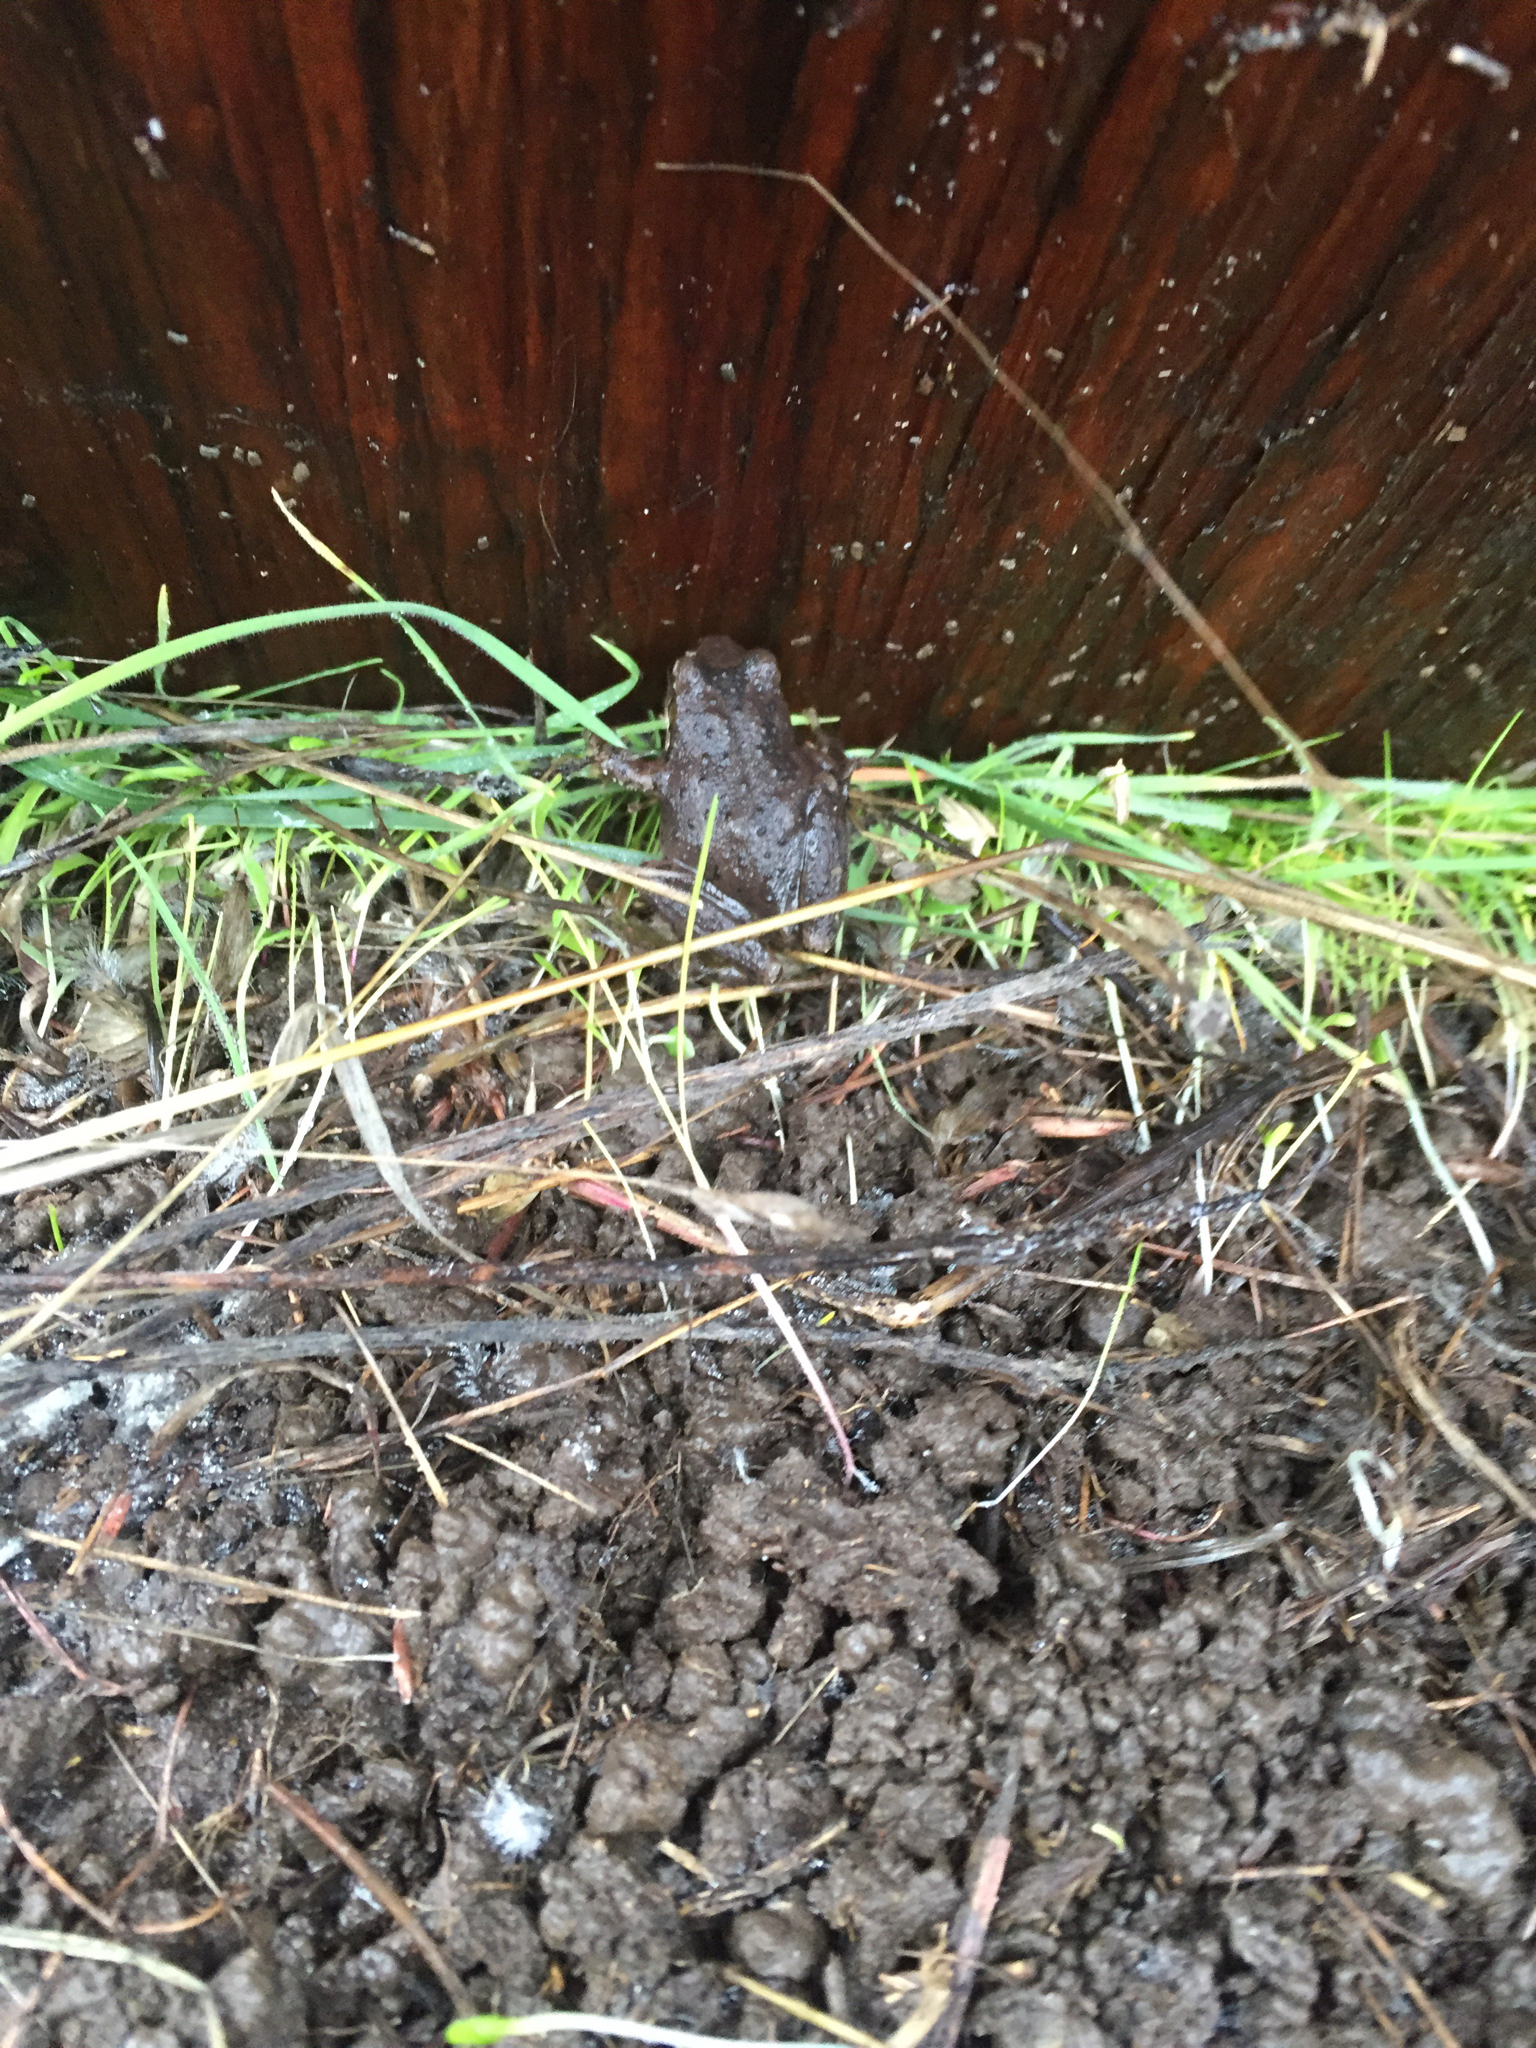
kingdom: Animalia
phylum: Chordata
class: Amphibia
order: Anura
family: Hylidae
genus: Pseudacris
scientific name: Pseudacris regilla
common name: Pacific chorus frog
